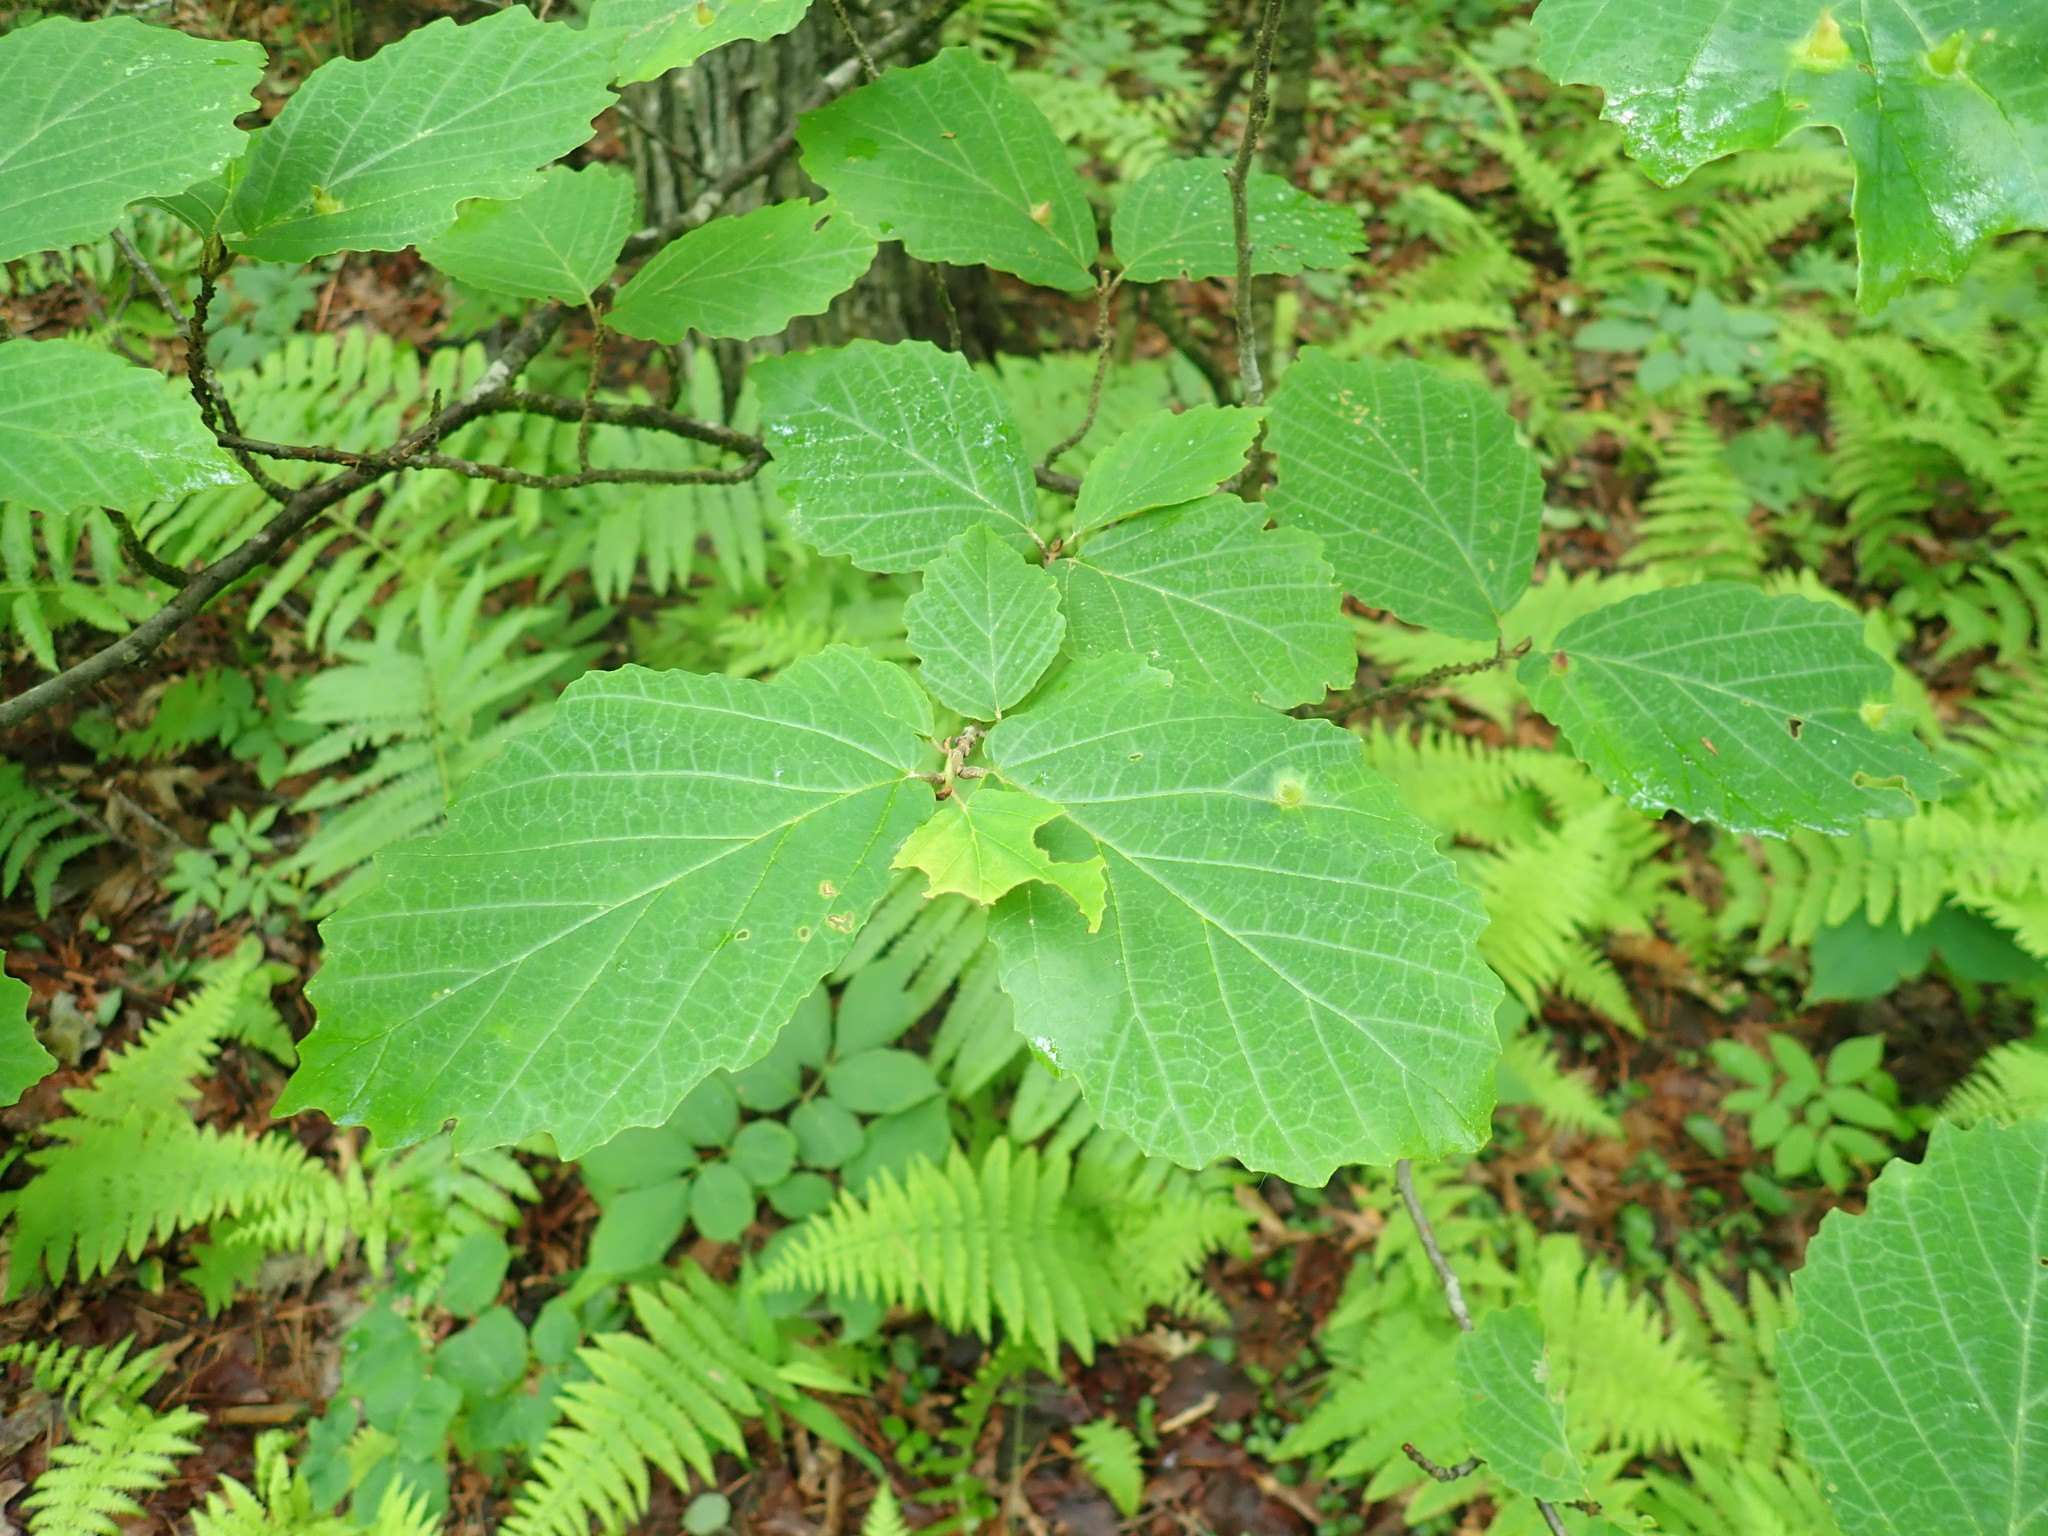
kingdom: Plantae
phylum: Tracheophyta
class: Magnoliopsida
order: Saxifragales
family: Hamamelidaceae
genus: Hamamelis
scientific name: Hamamelis virginiana
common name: Witch-hazel
